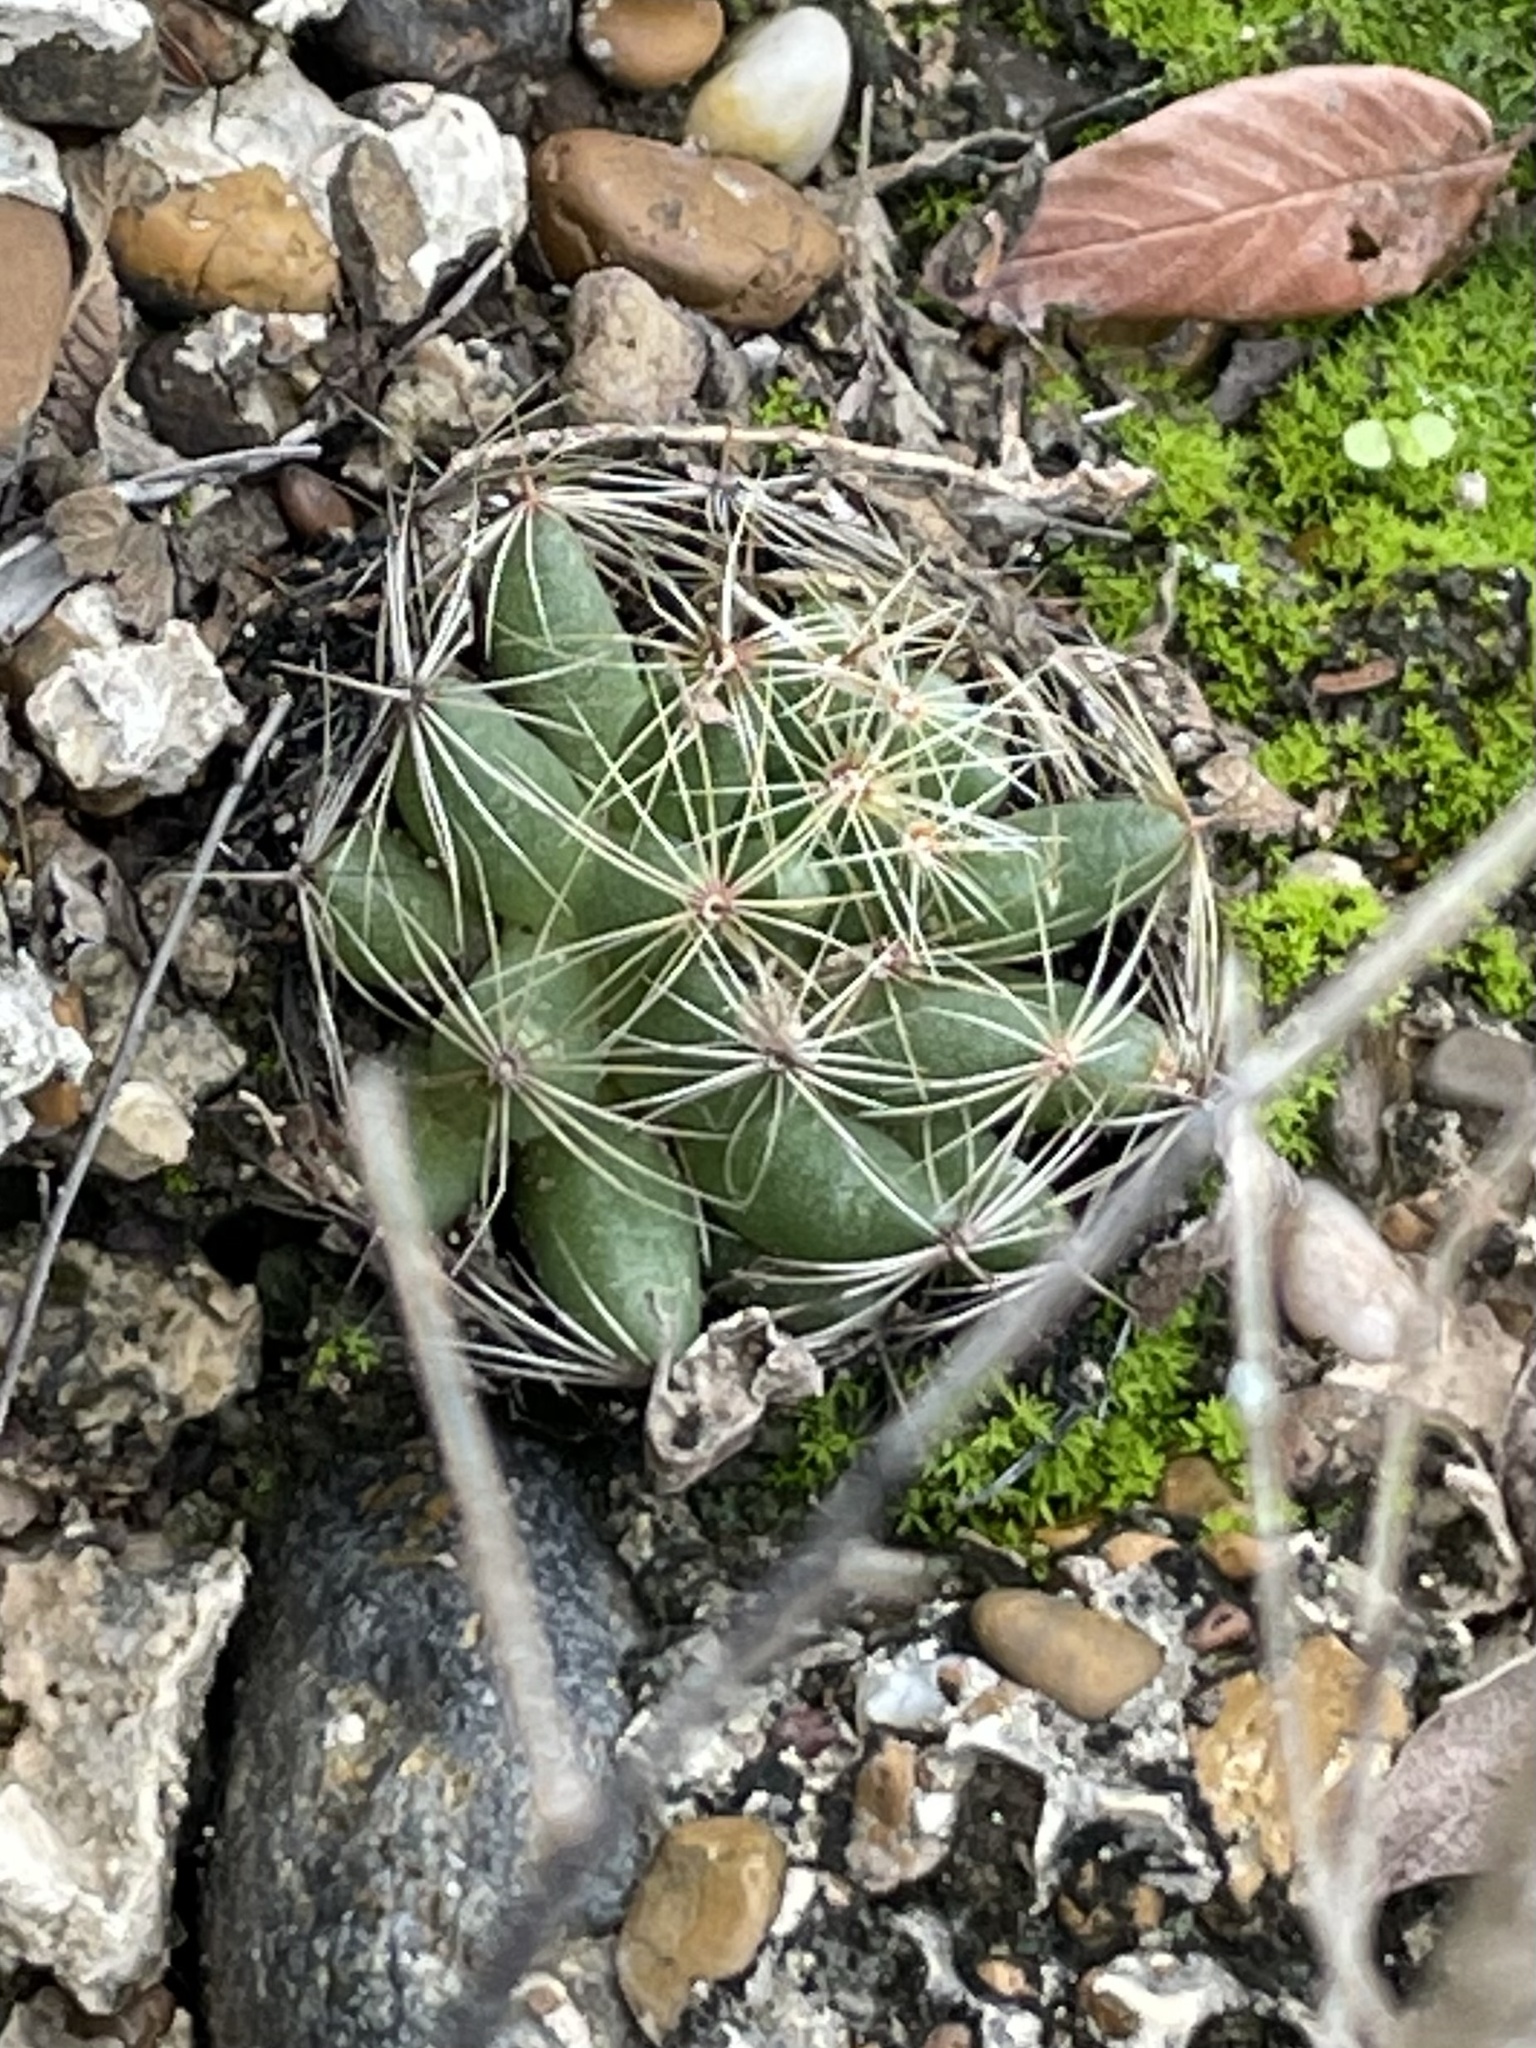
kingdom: Plantae
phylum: Tracheophyta
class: Magnoliopsida
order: Caryophyllales
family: Cactaceae
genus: Mammillaria
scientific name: Mammillaria sphaerica
